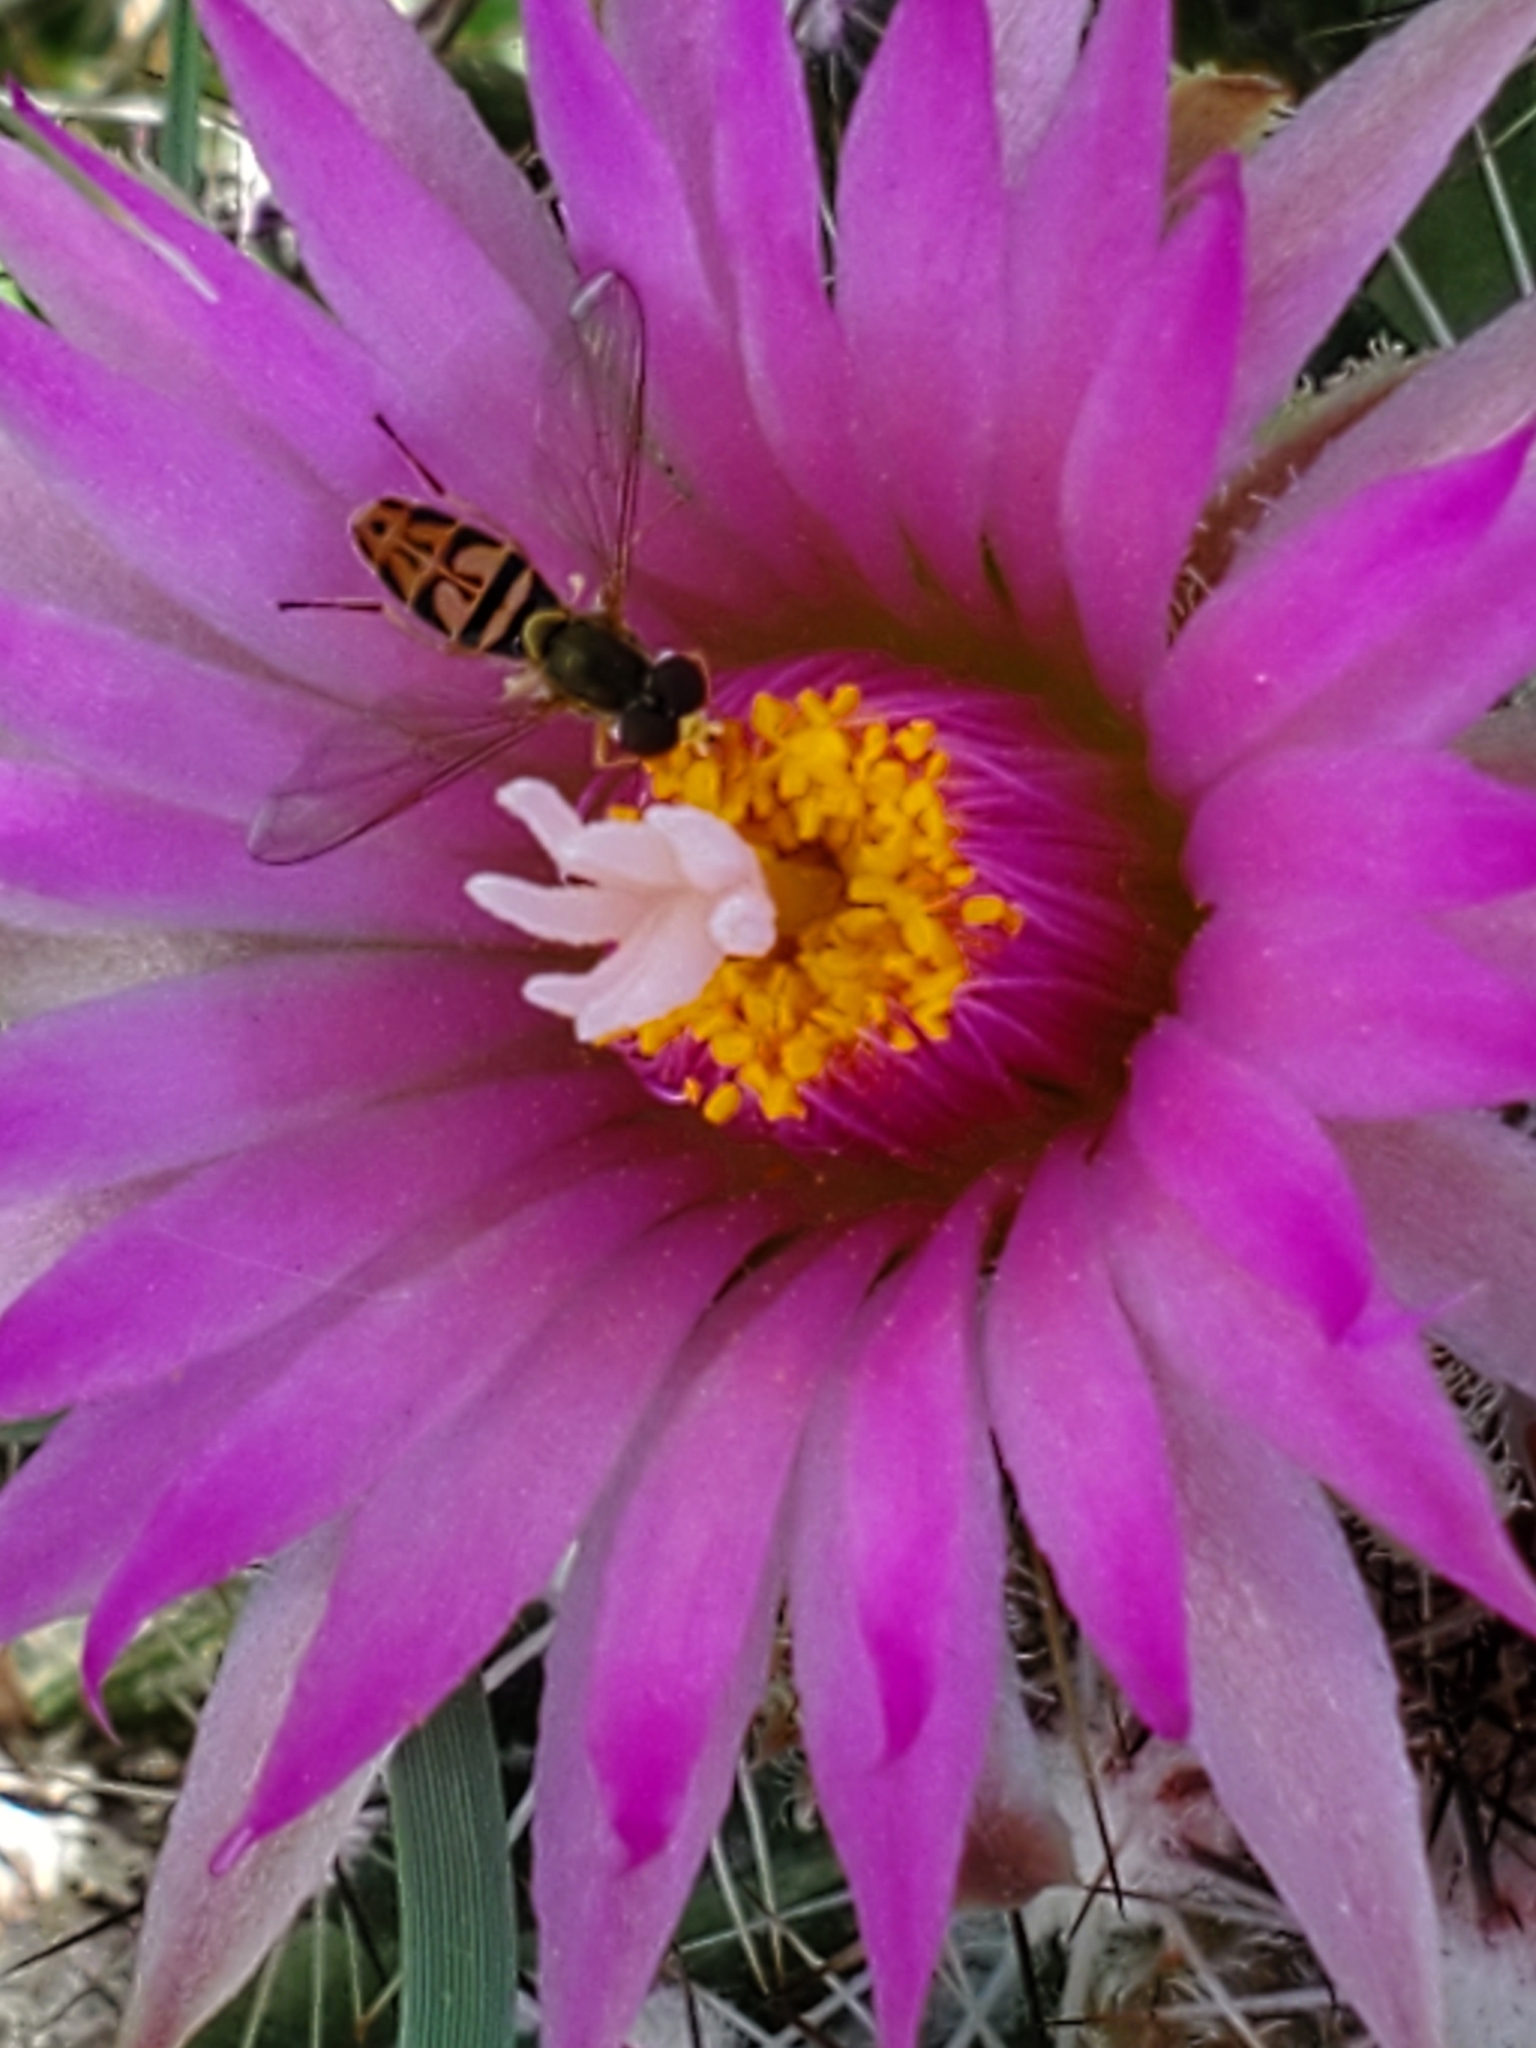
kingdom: Animalia
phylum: Arthropoda
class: Insecta
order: Diptera
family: Syrphidae
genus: Toxomerus
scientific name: Toxomerus marginatus
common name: Syrphid fly
